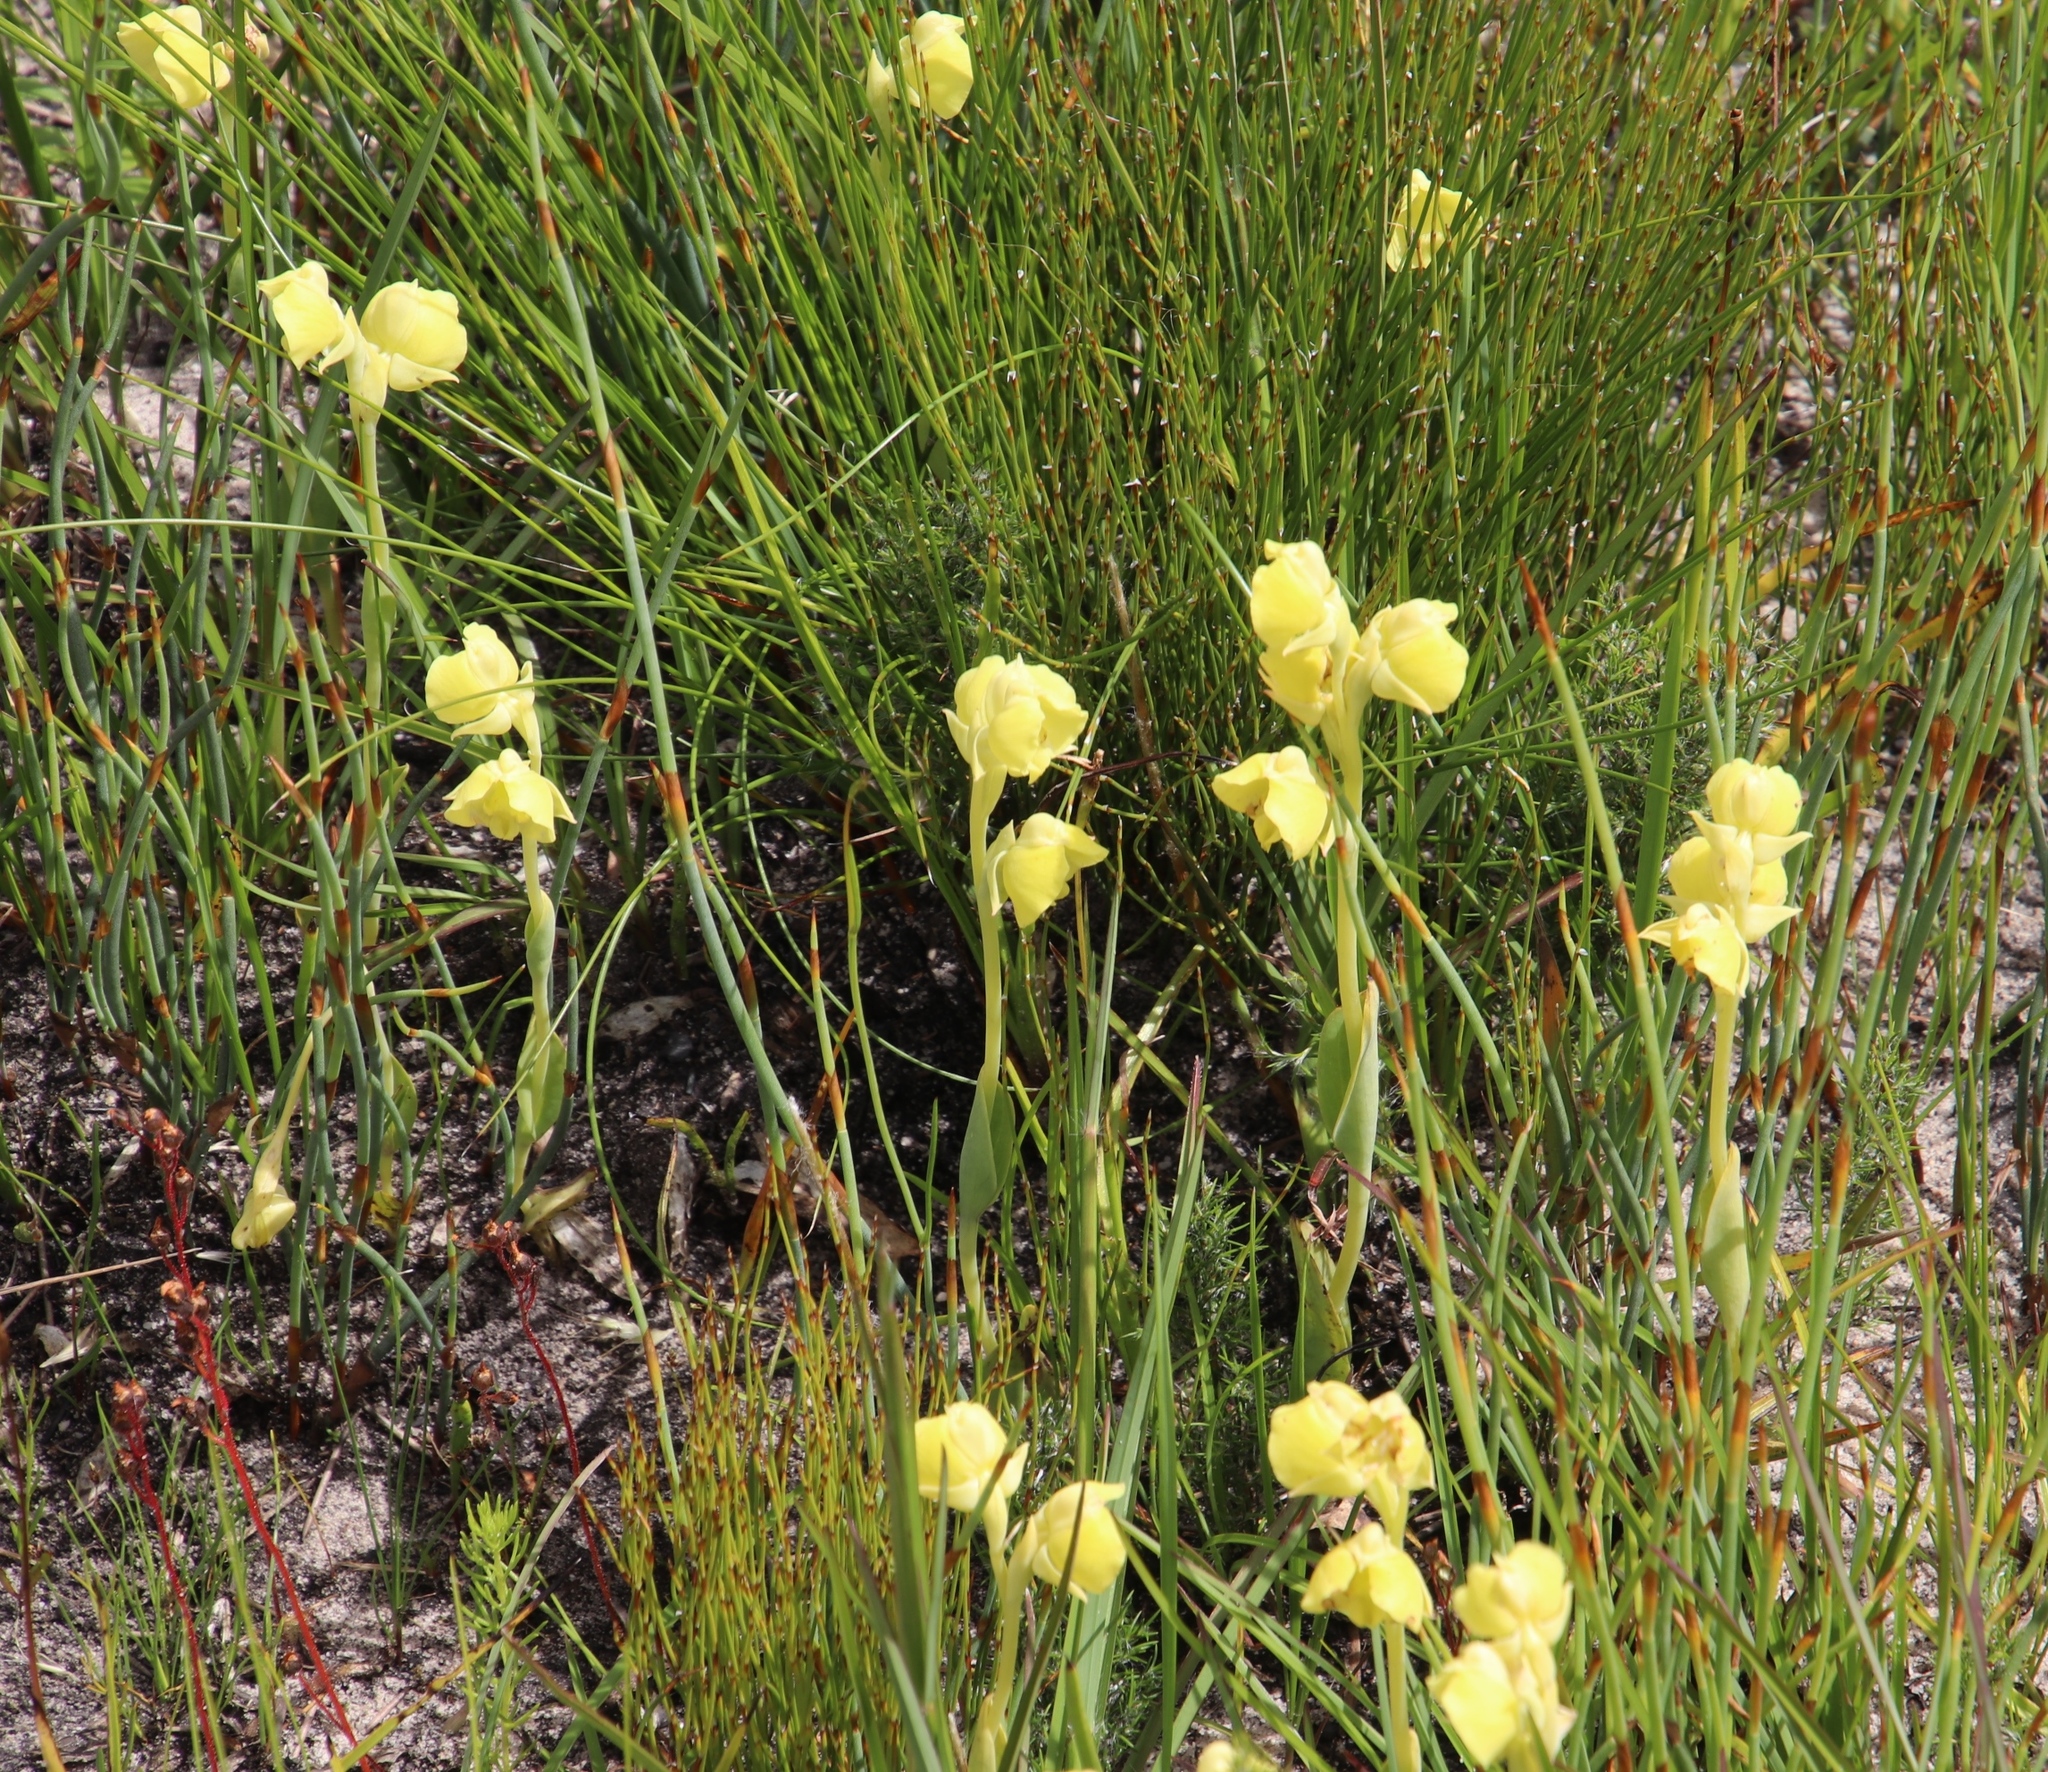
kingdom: Plantae
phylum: Tracheophyta
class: Liliopsida
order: Asparagales
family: Orchidaceae
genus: Pterygodium
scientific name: Pterygodium acutifolium
